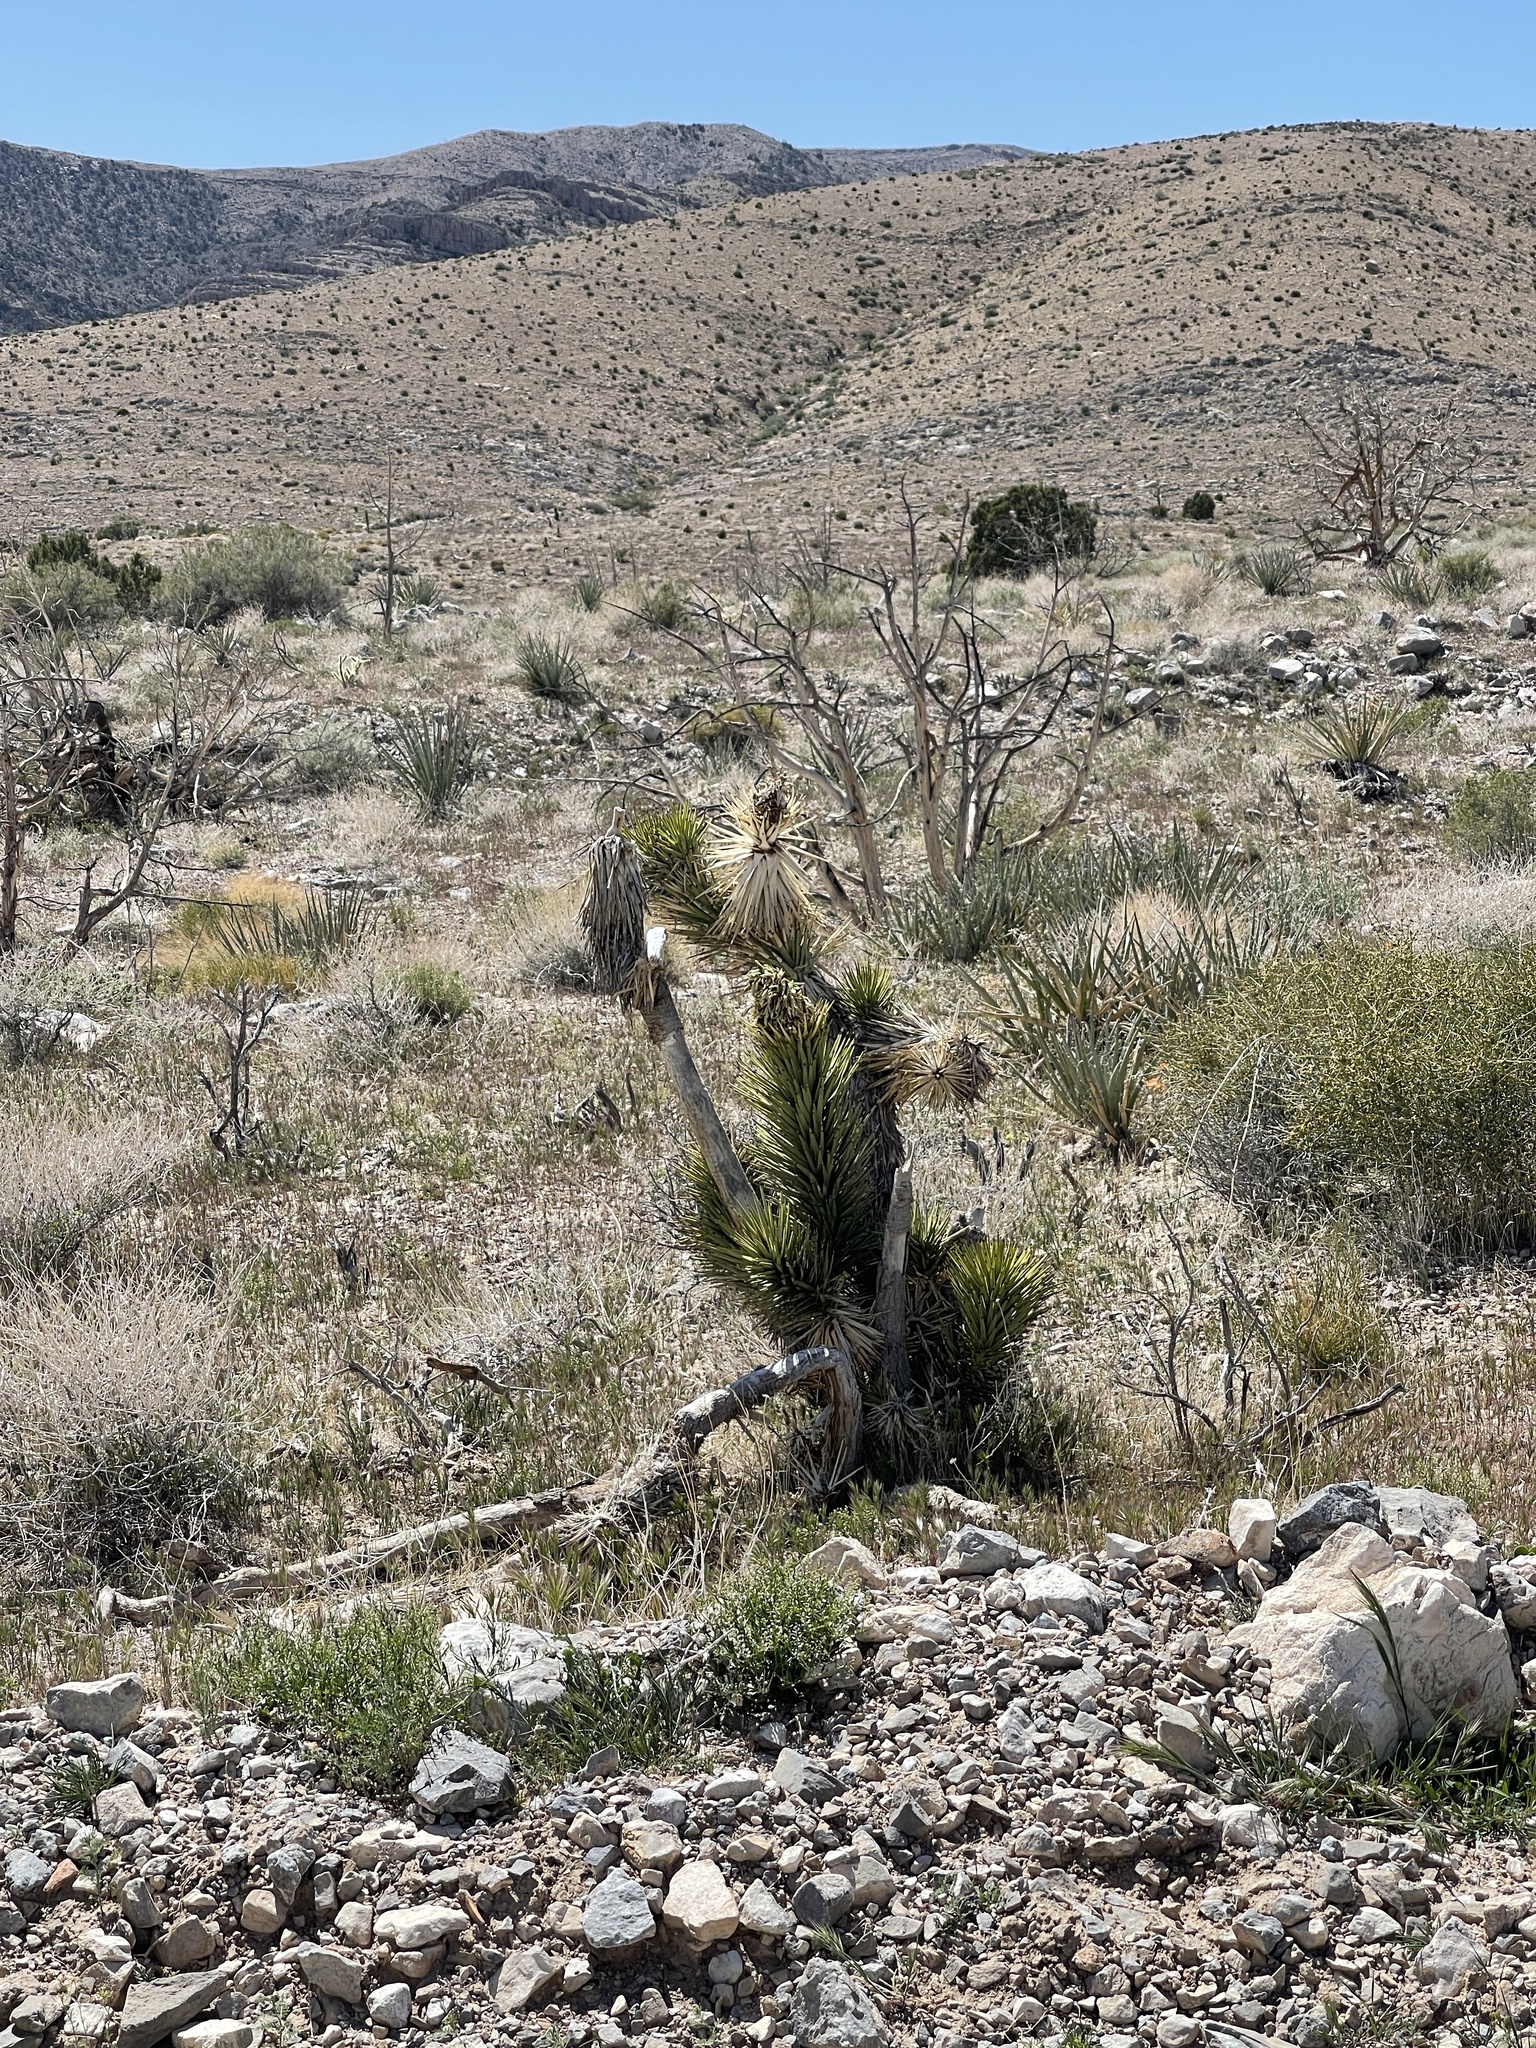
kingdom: Plantae
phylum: Tracheophyta
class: Liliopsida
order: Asparagales
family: Asparagaceae
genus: Yucca
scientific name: Yucca brevifolia
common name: Joshua tree
